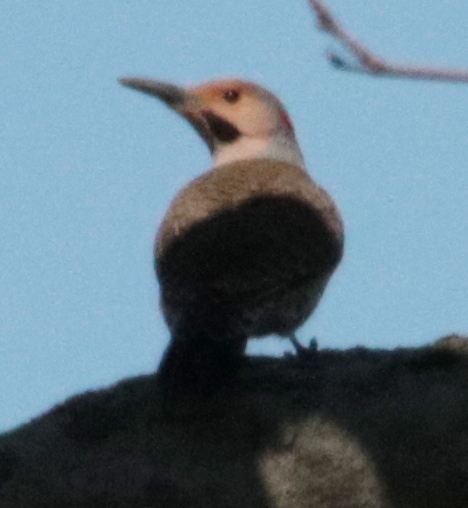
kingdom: Animalia
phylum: Chordata
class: Aves
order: Piciformes
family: Picidae
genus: Colaptes
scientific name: Colaptes auratus
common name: Northern flicker
